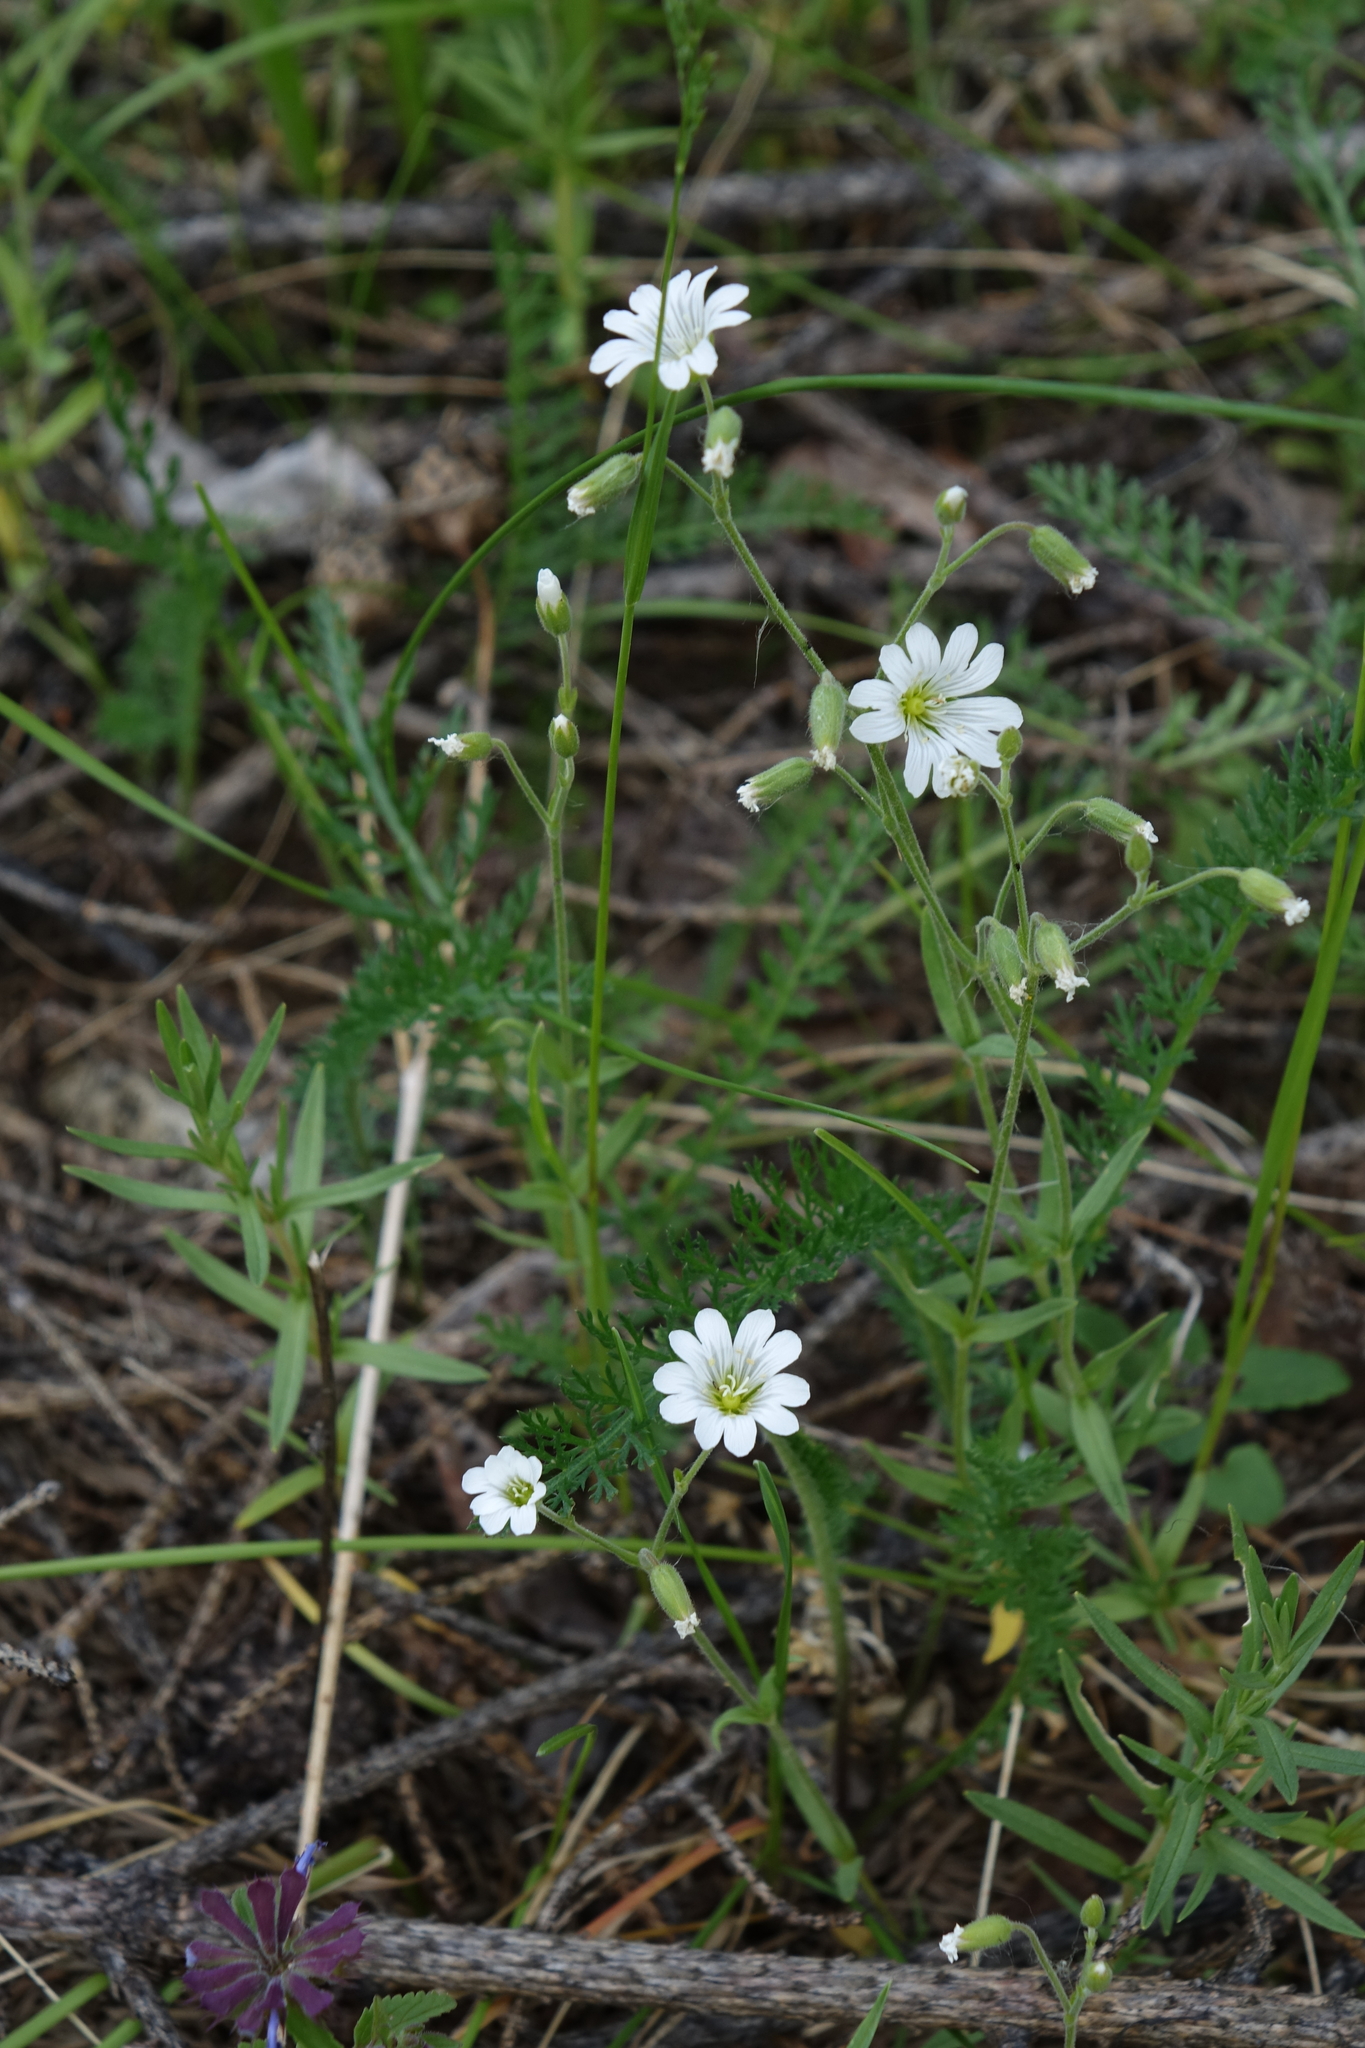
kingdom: Plantae
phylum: Tracheophyta
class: Magnoliopsida
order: Caryophyllales
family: Caryophyllaceae
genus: Cerastium
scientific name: Cerastium arvense
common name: Field mouse-ear
